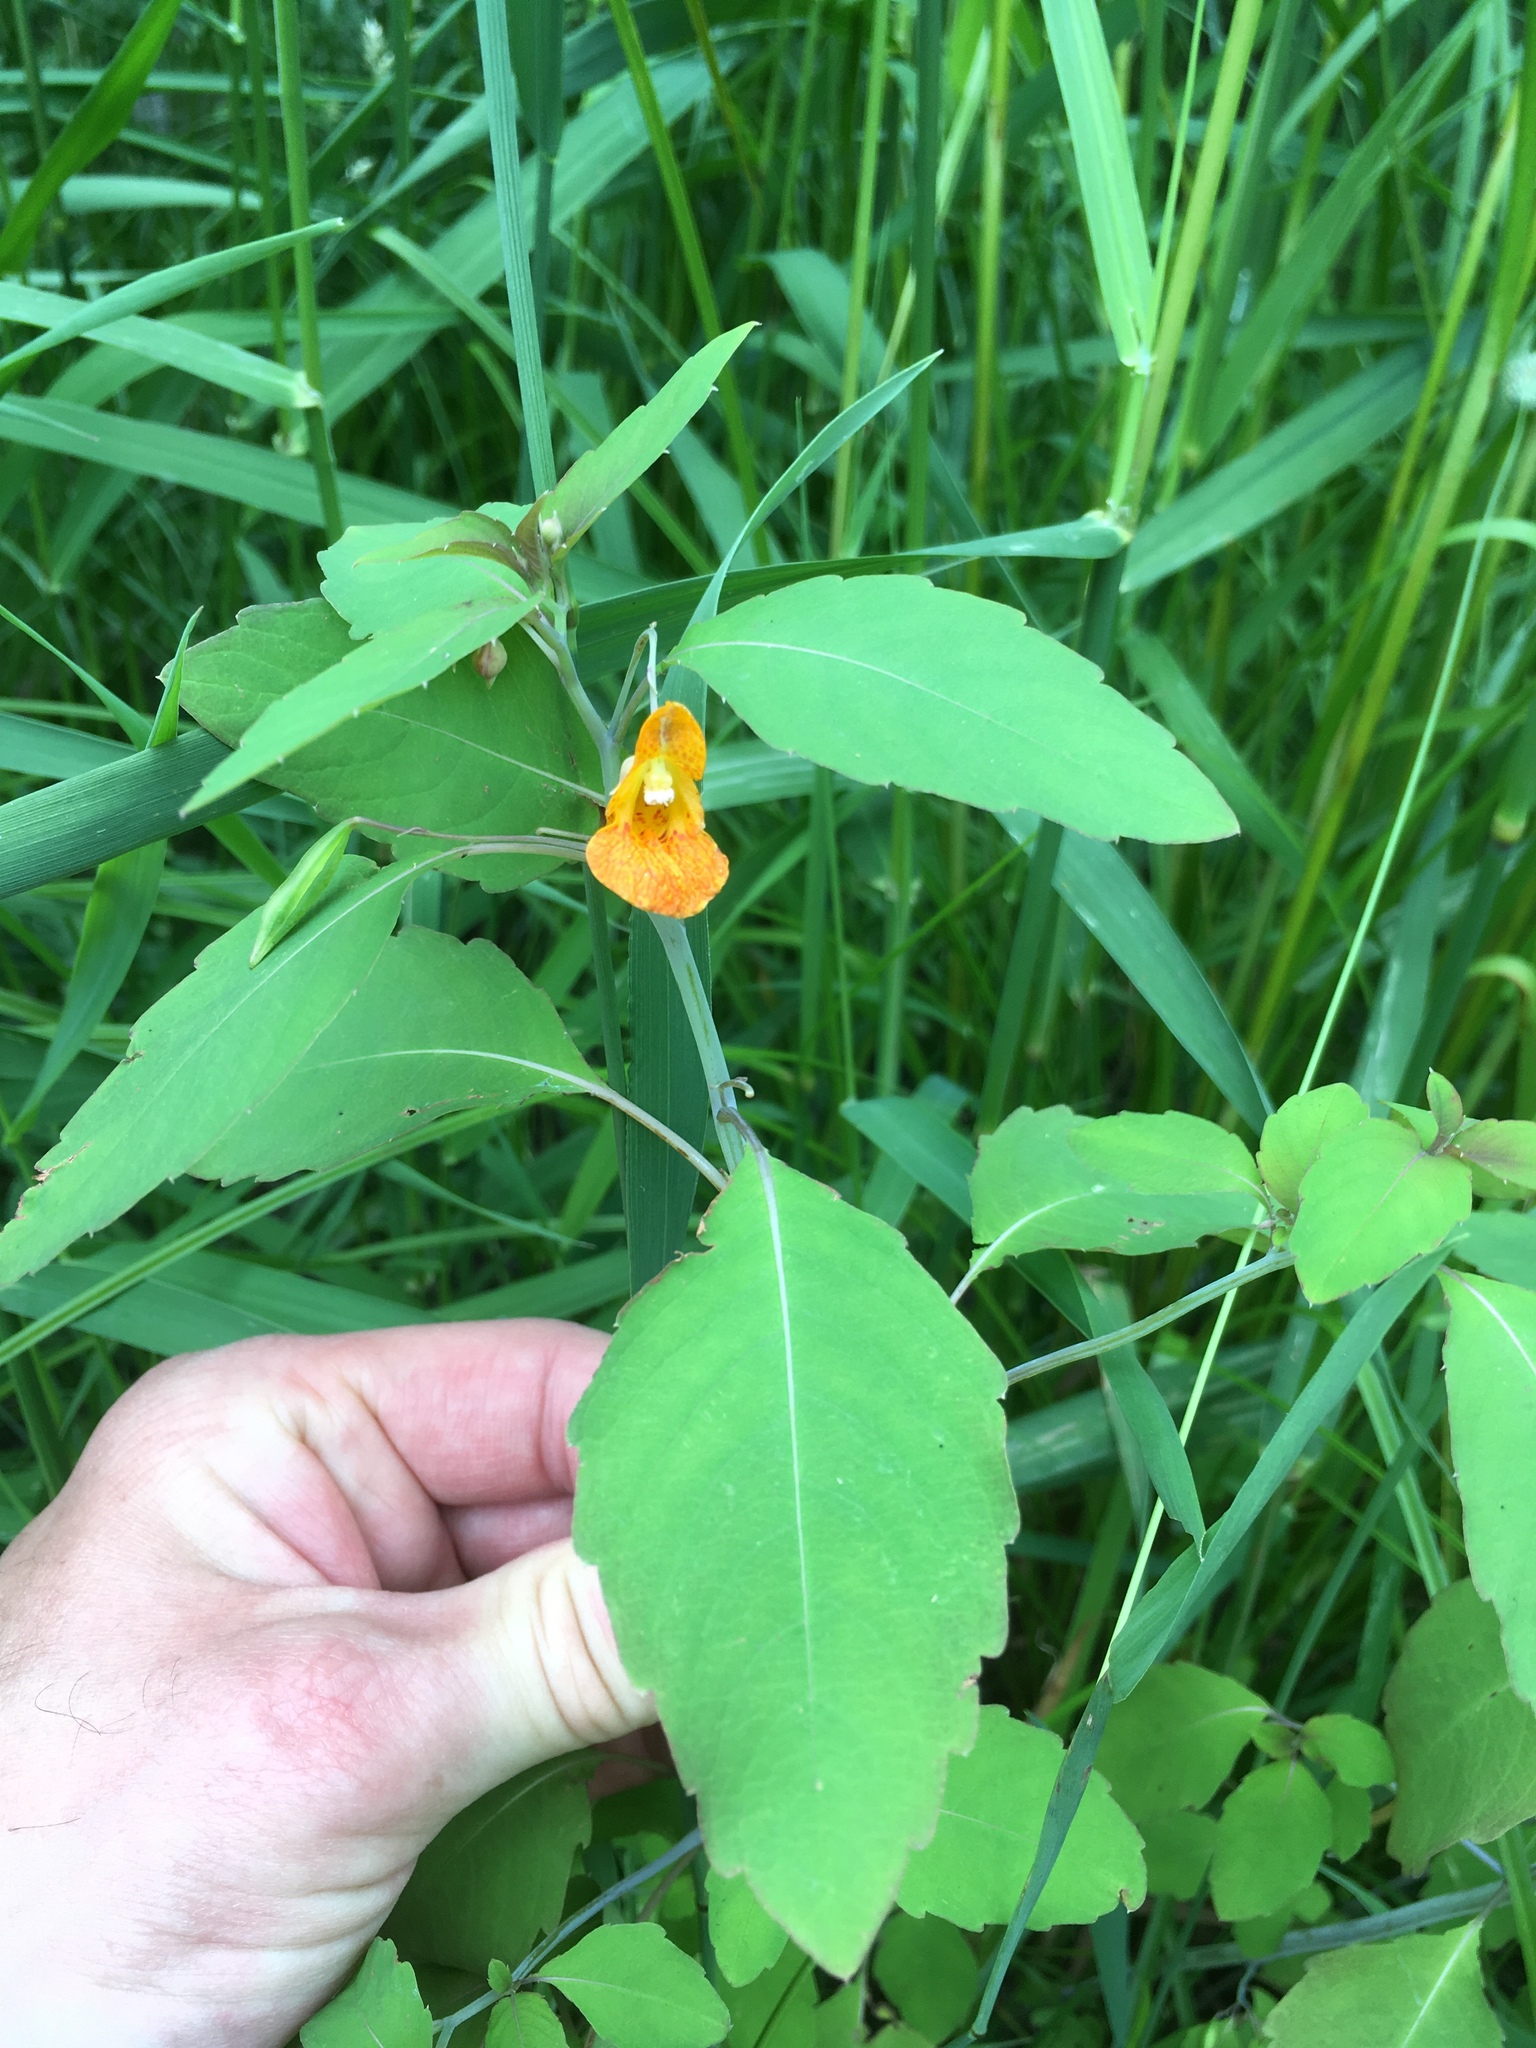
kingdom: Plantae
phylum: Tracheophyta
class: Magnoliopsida
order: Ericales
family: Balsaminaceae
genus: Impatiens
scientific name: Impatiens capensis
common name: Orange balsam
